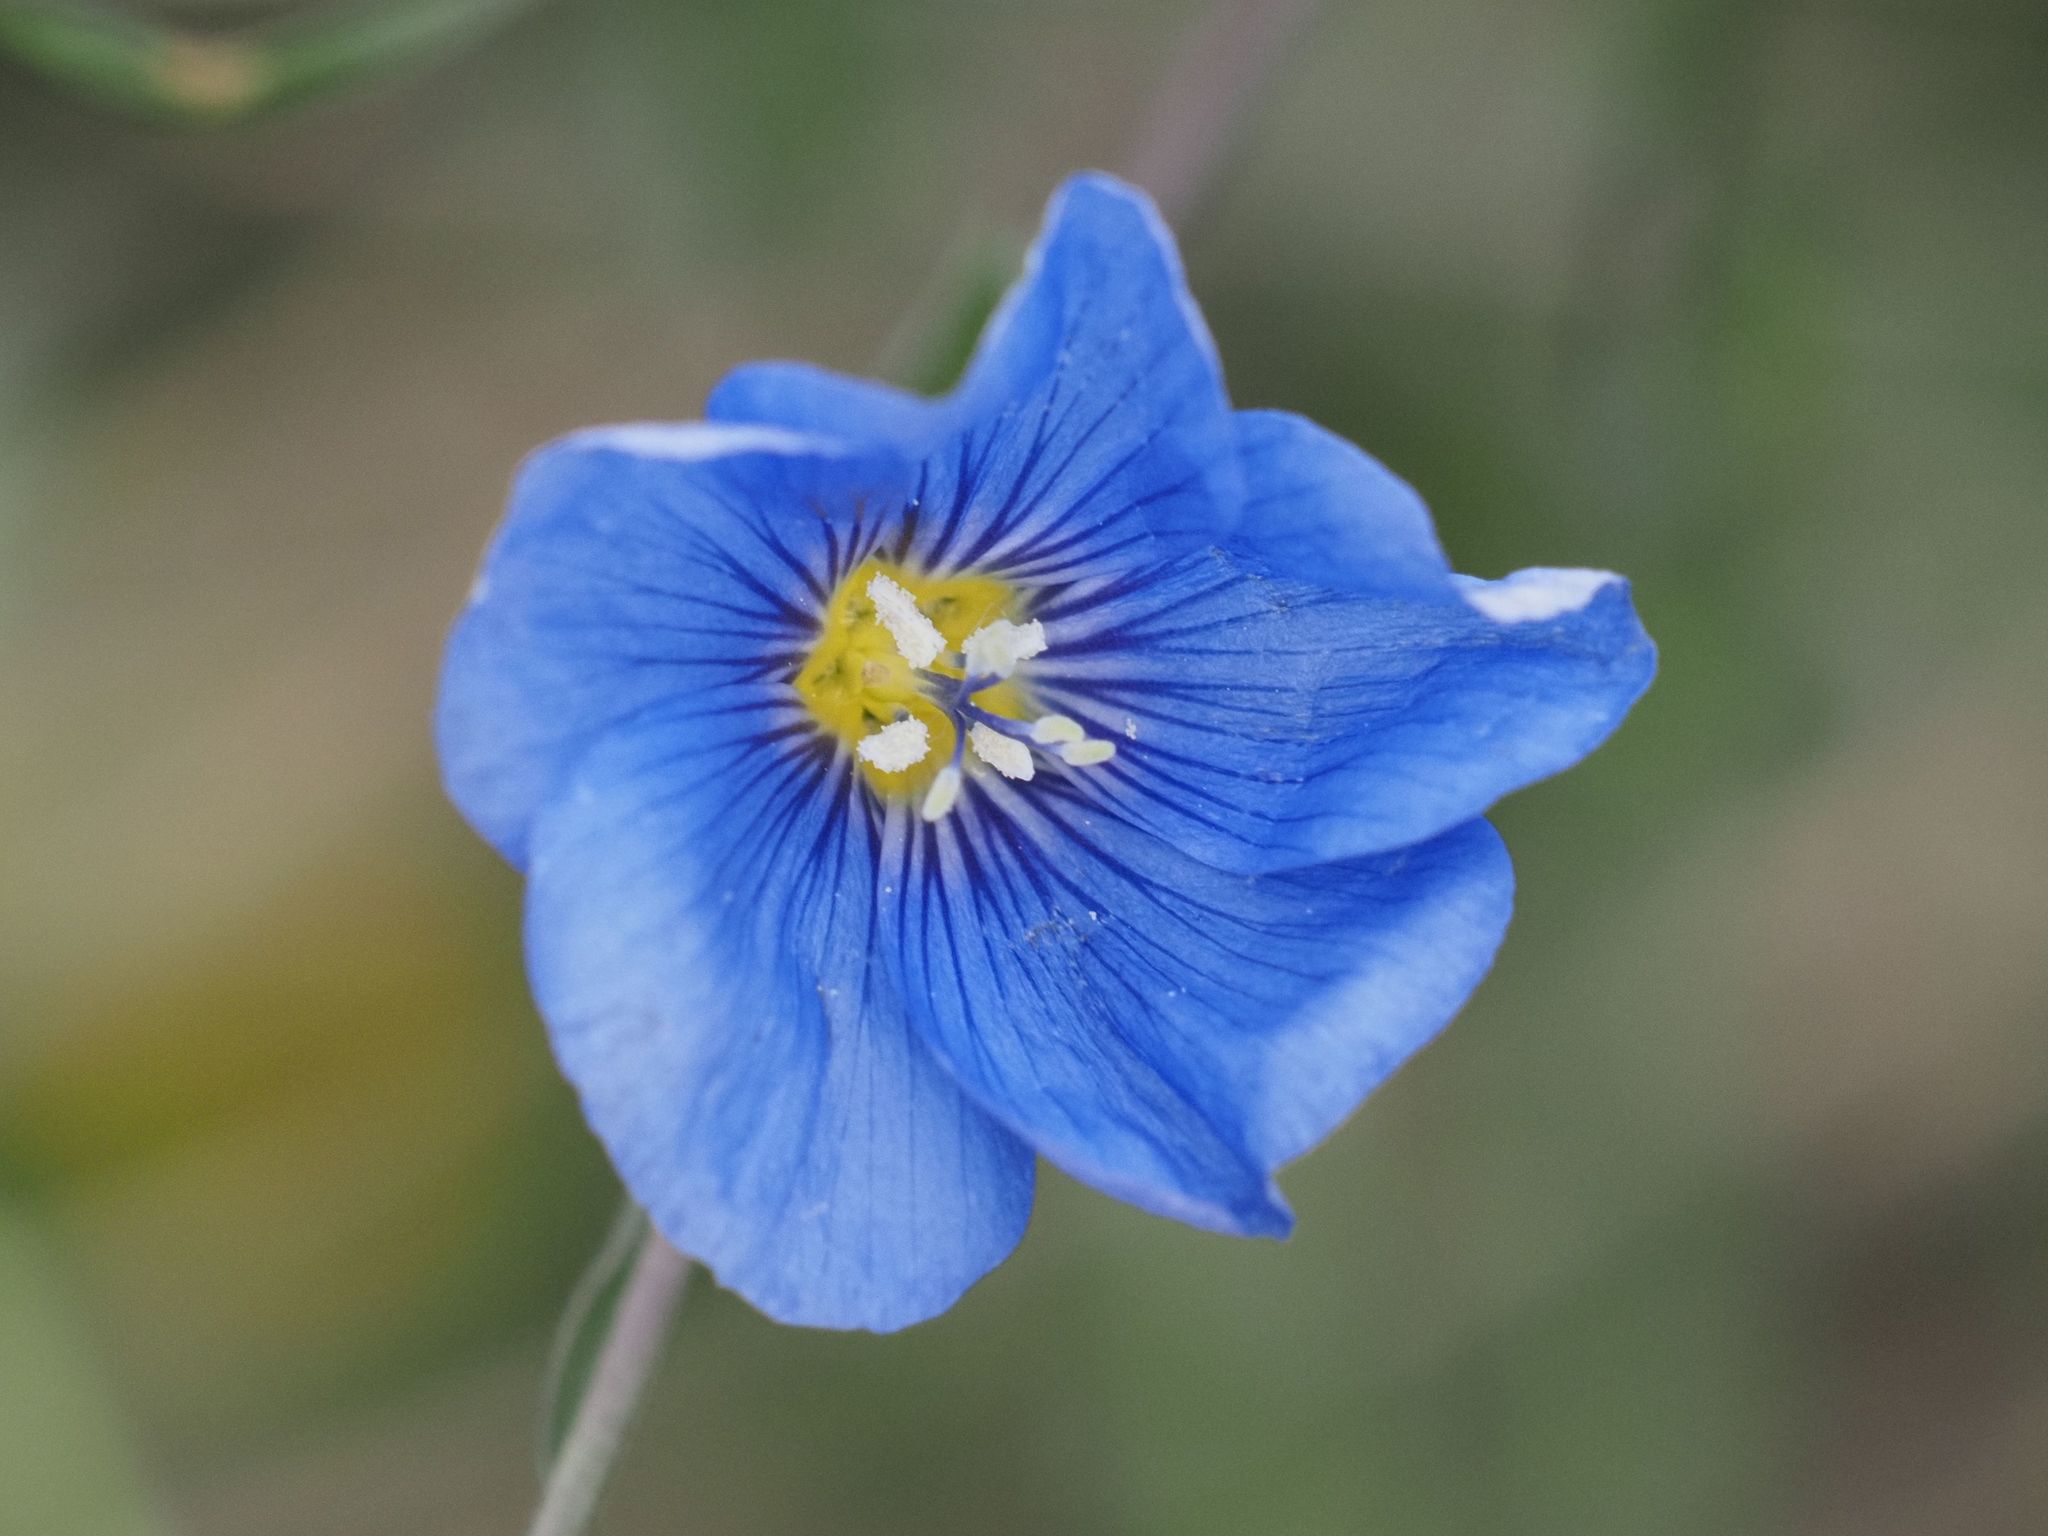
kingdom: Plantae
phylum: Tracheophyta
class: Magnoliopsida
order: Malpighiales
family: Linaceae
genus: Linum
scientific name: Linum austriacum
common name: Austrian flax
